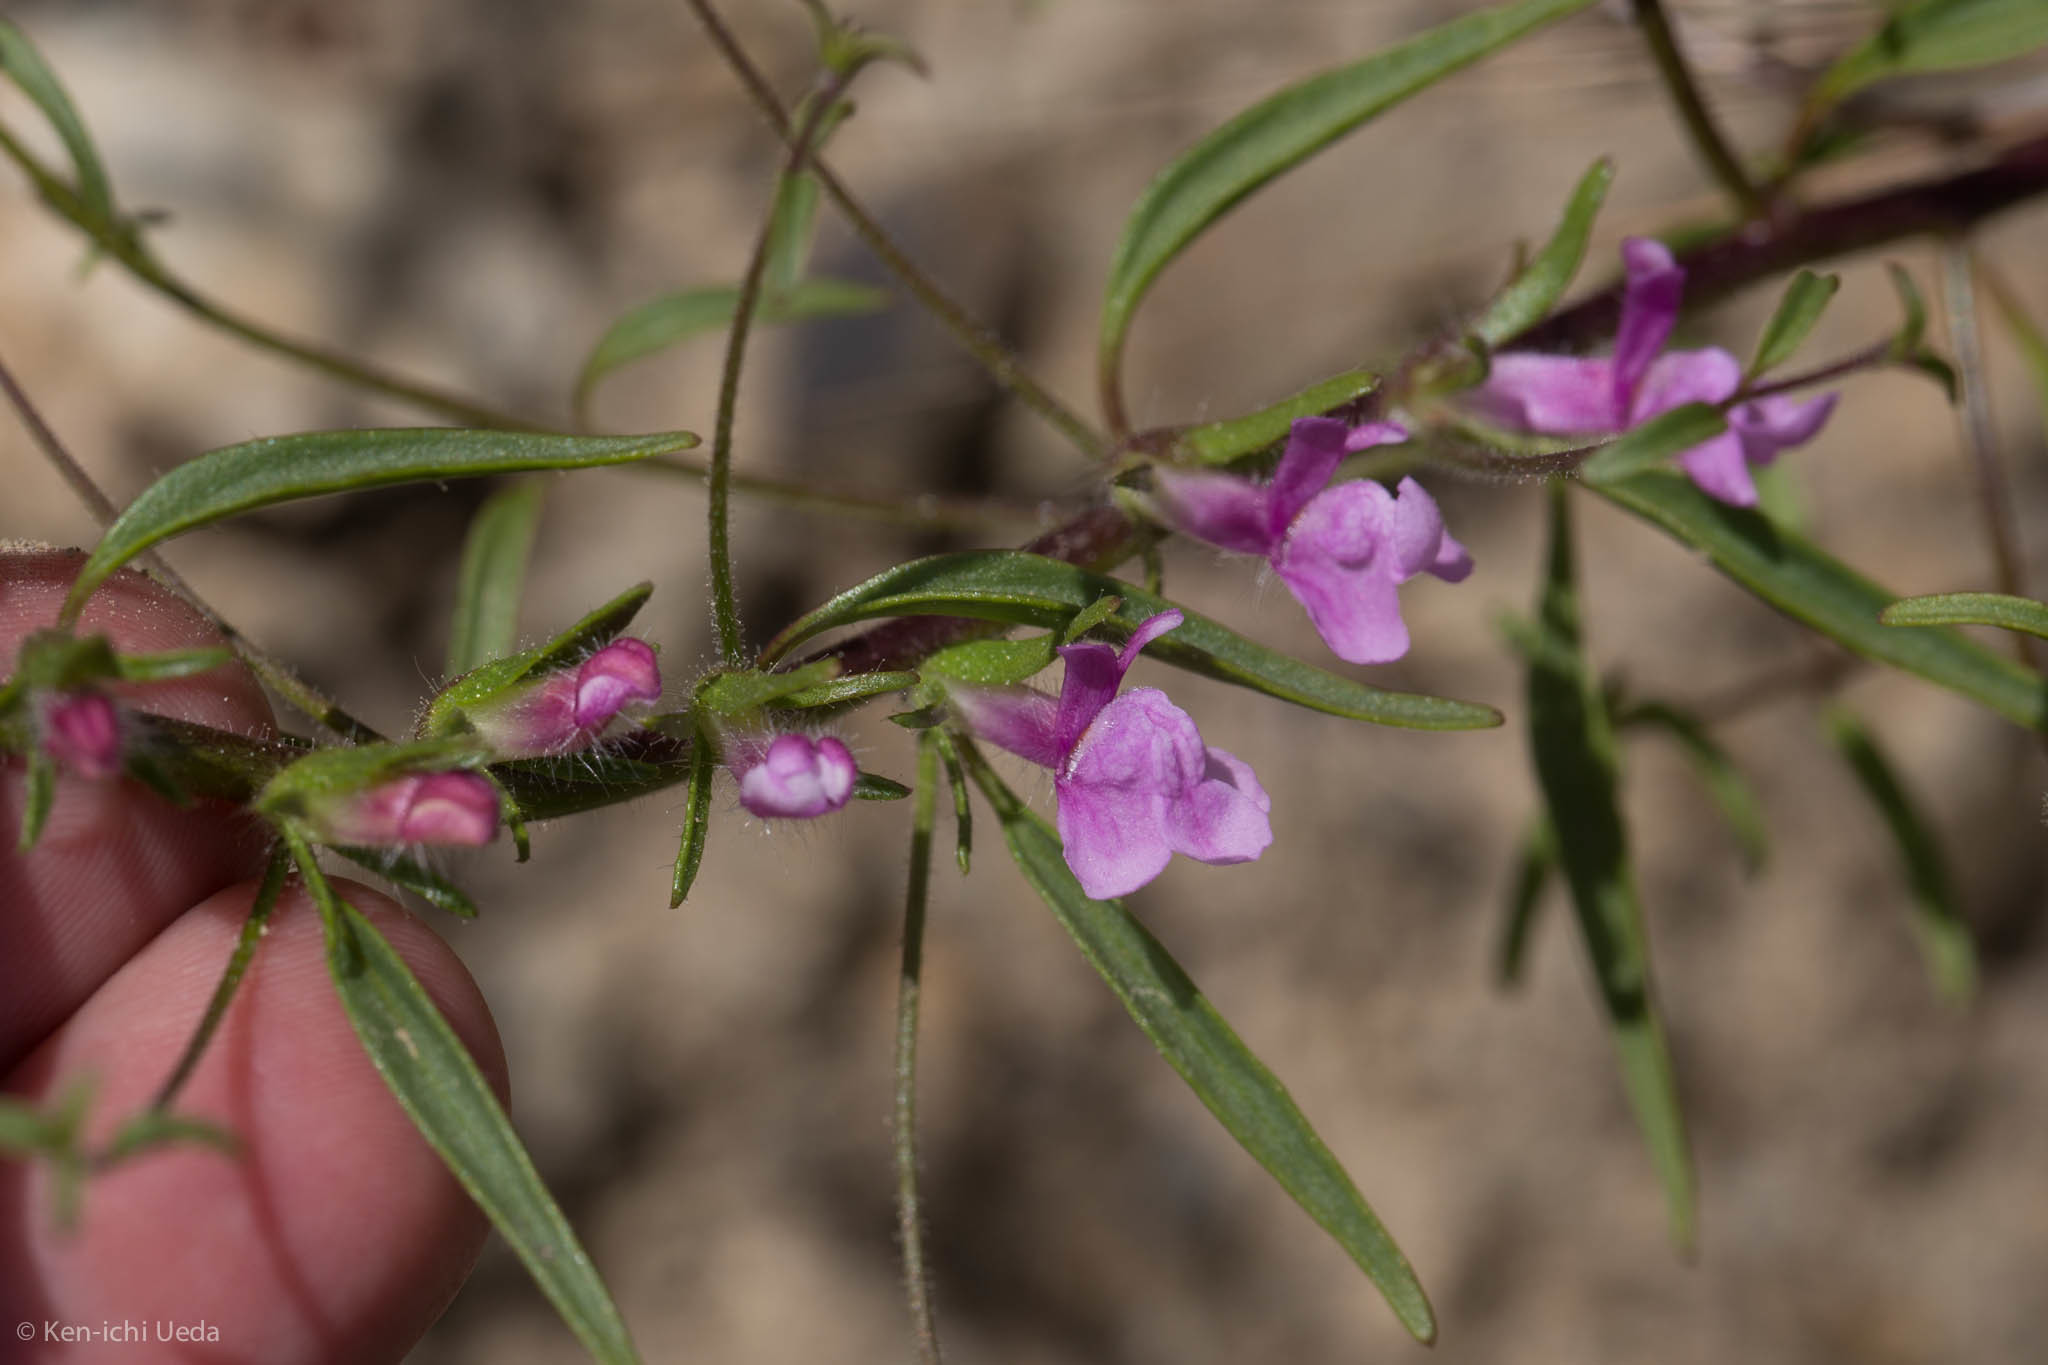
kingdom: Plantae
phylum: Tracheophyta
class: Magnoliopsida
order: Lamiales
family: Plantaginaceae
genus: Sairocarpus
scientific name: Sairocarpus vexillocalyculatus
